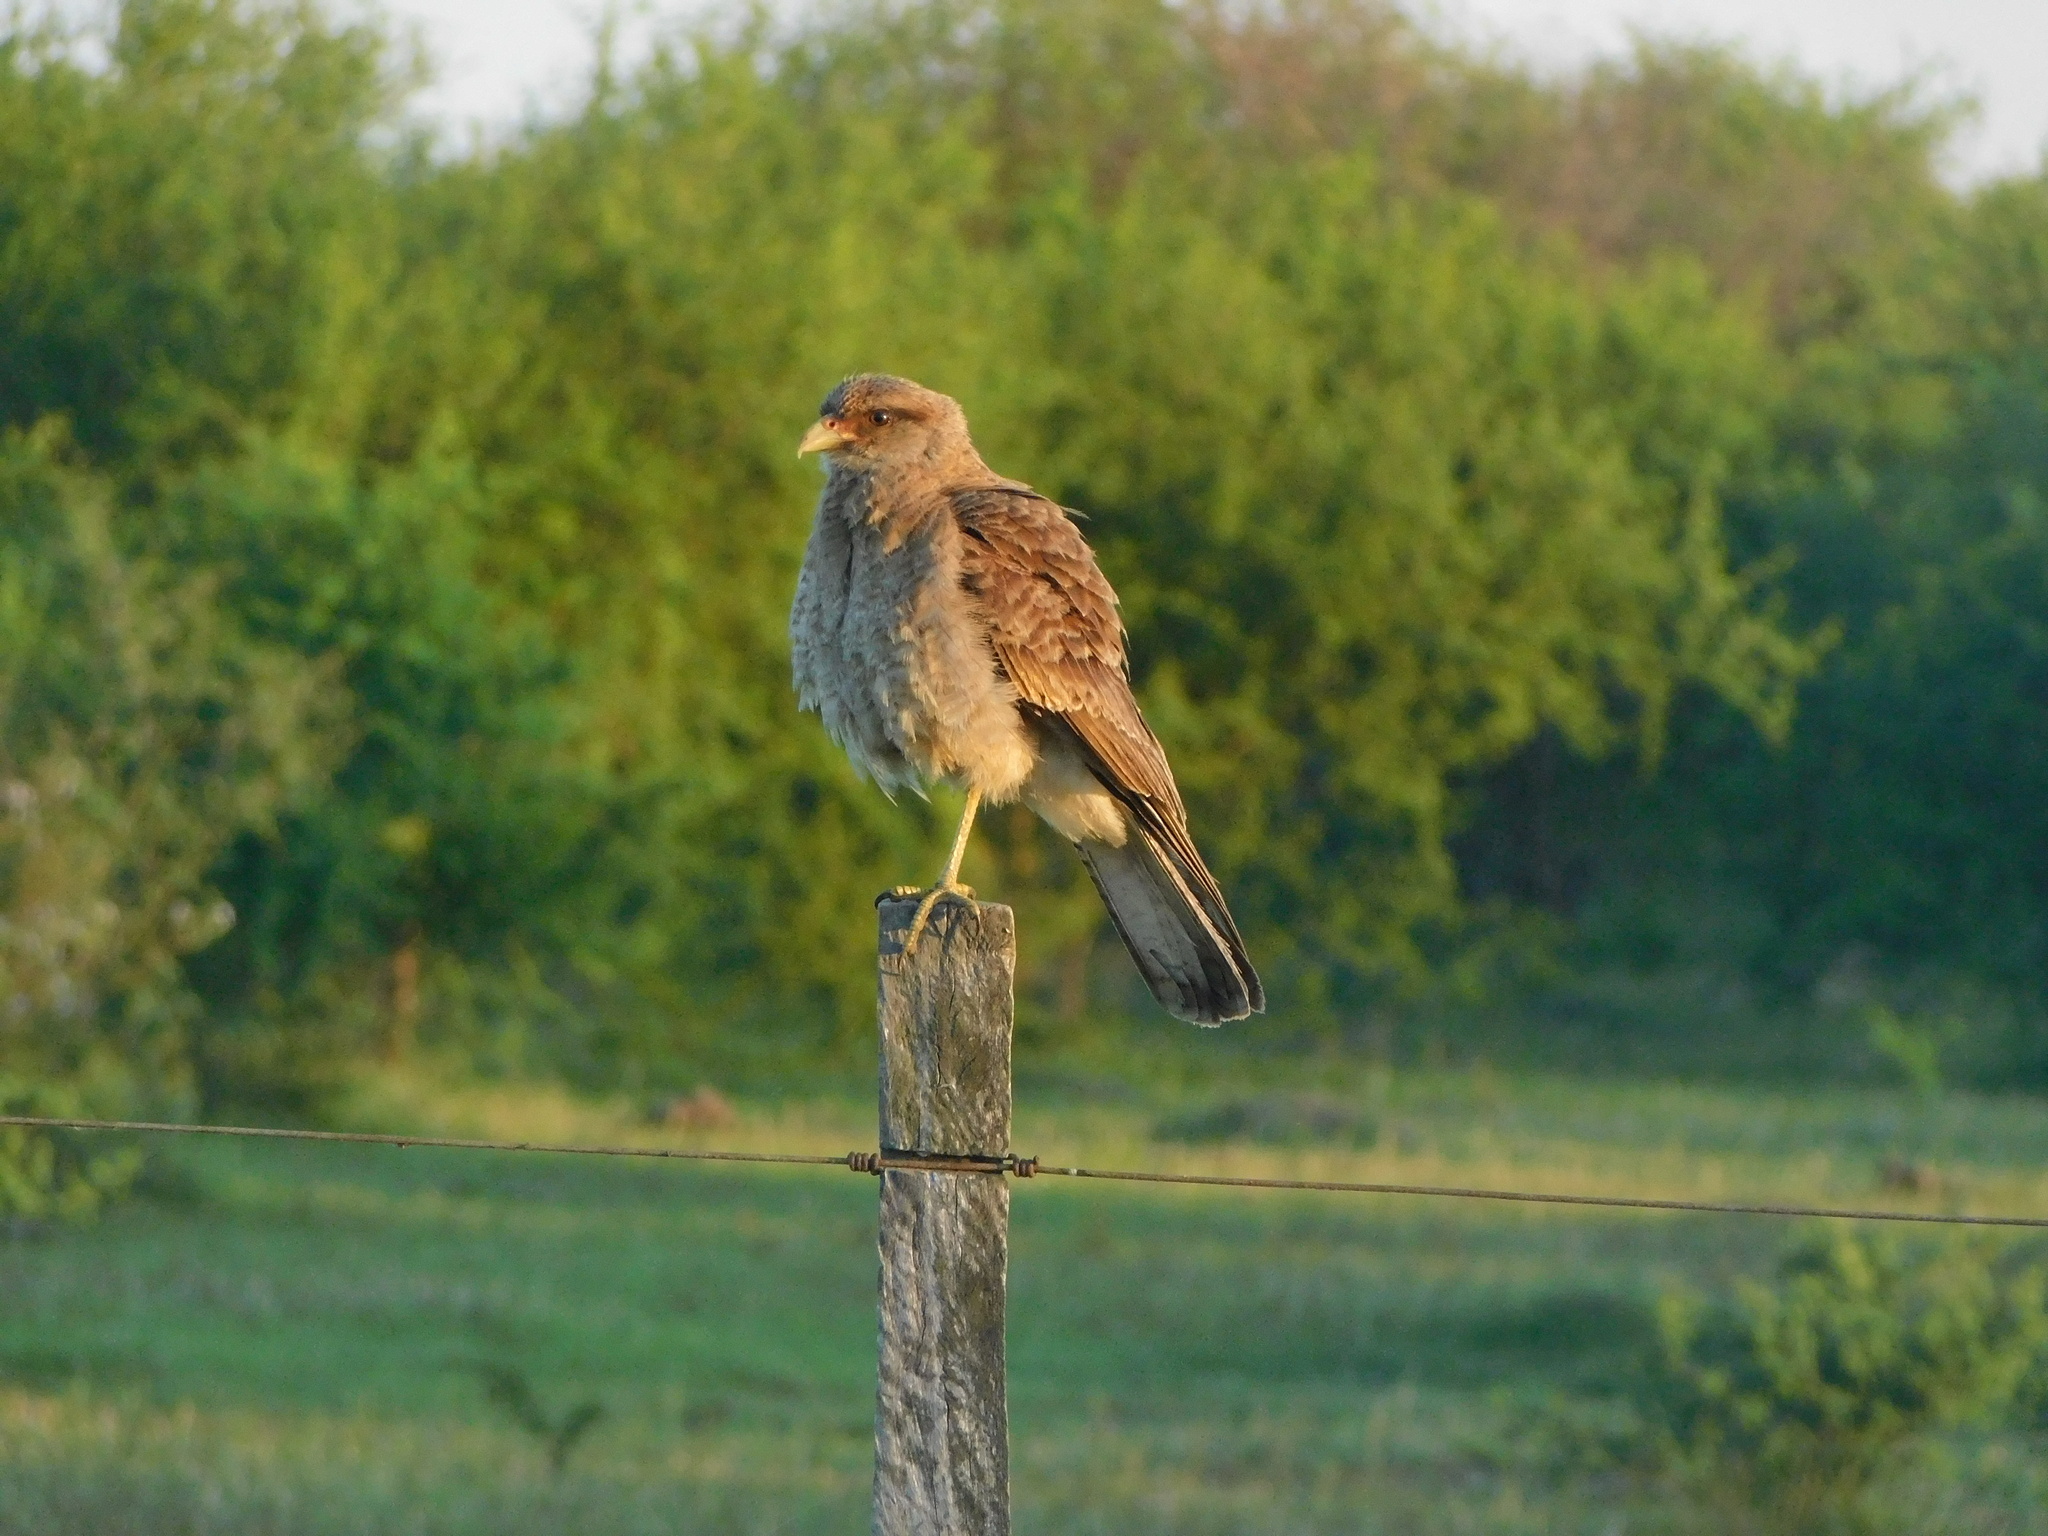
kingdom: Animalia
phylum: Chordata
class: Aves
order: Falconiformes
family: Falconidae
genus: Daptrius
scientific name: Daptrius
